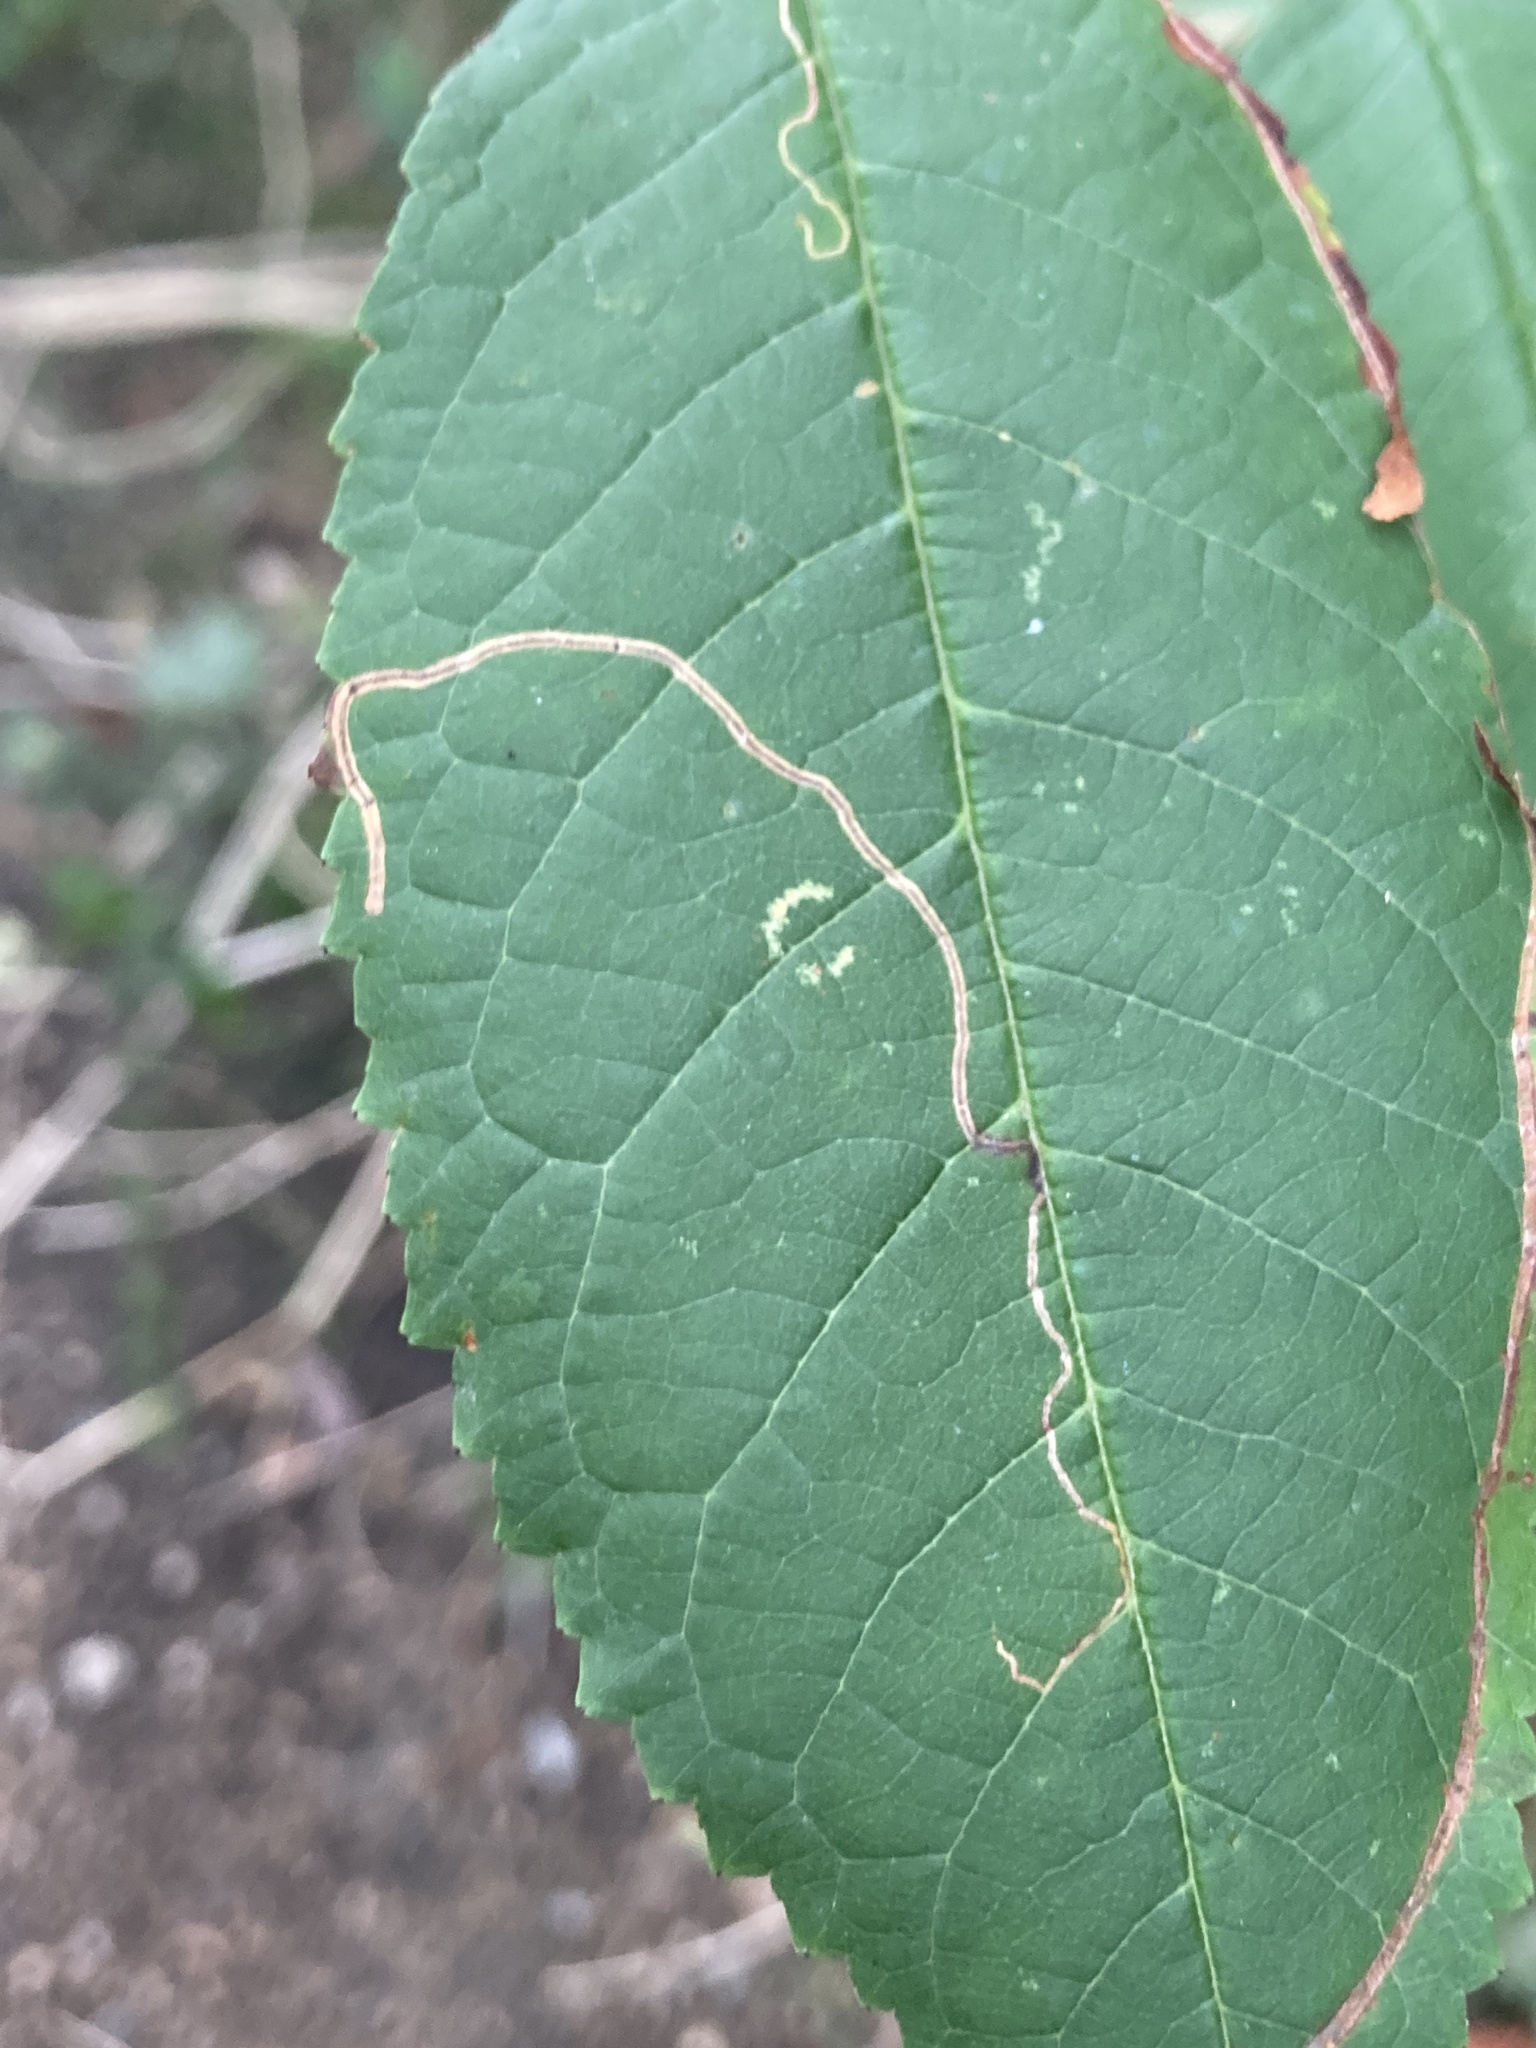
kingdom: Animalia
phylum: Arthropoda
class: Insecta
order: Lepidoptera
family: Lyonetiidae
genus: Lyonetia
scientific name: Lyonetia clerkella
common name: Apple leaf miner
